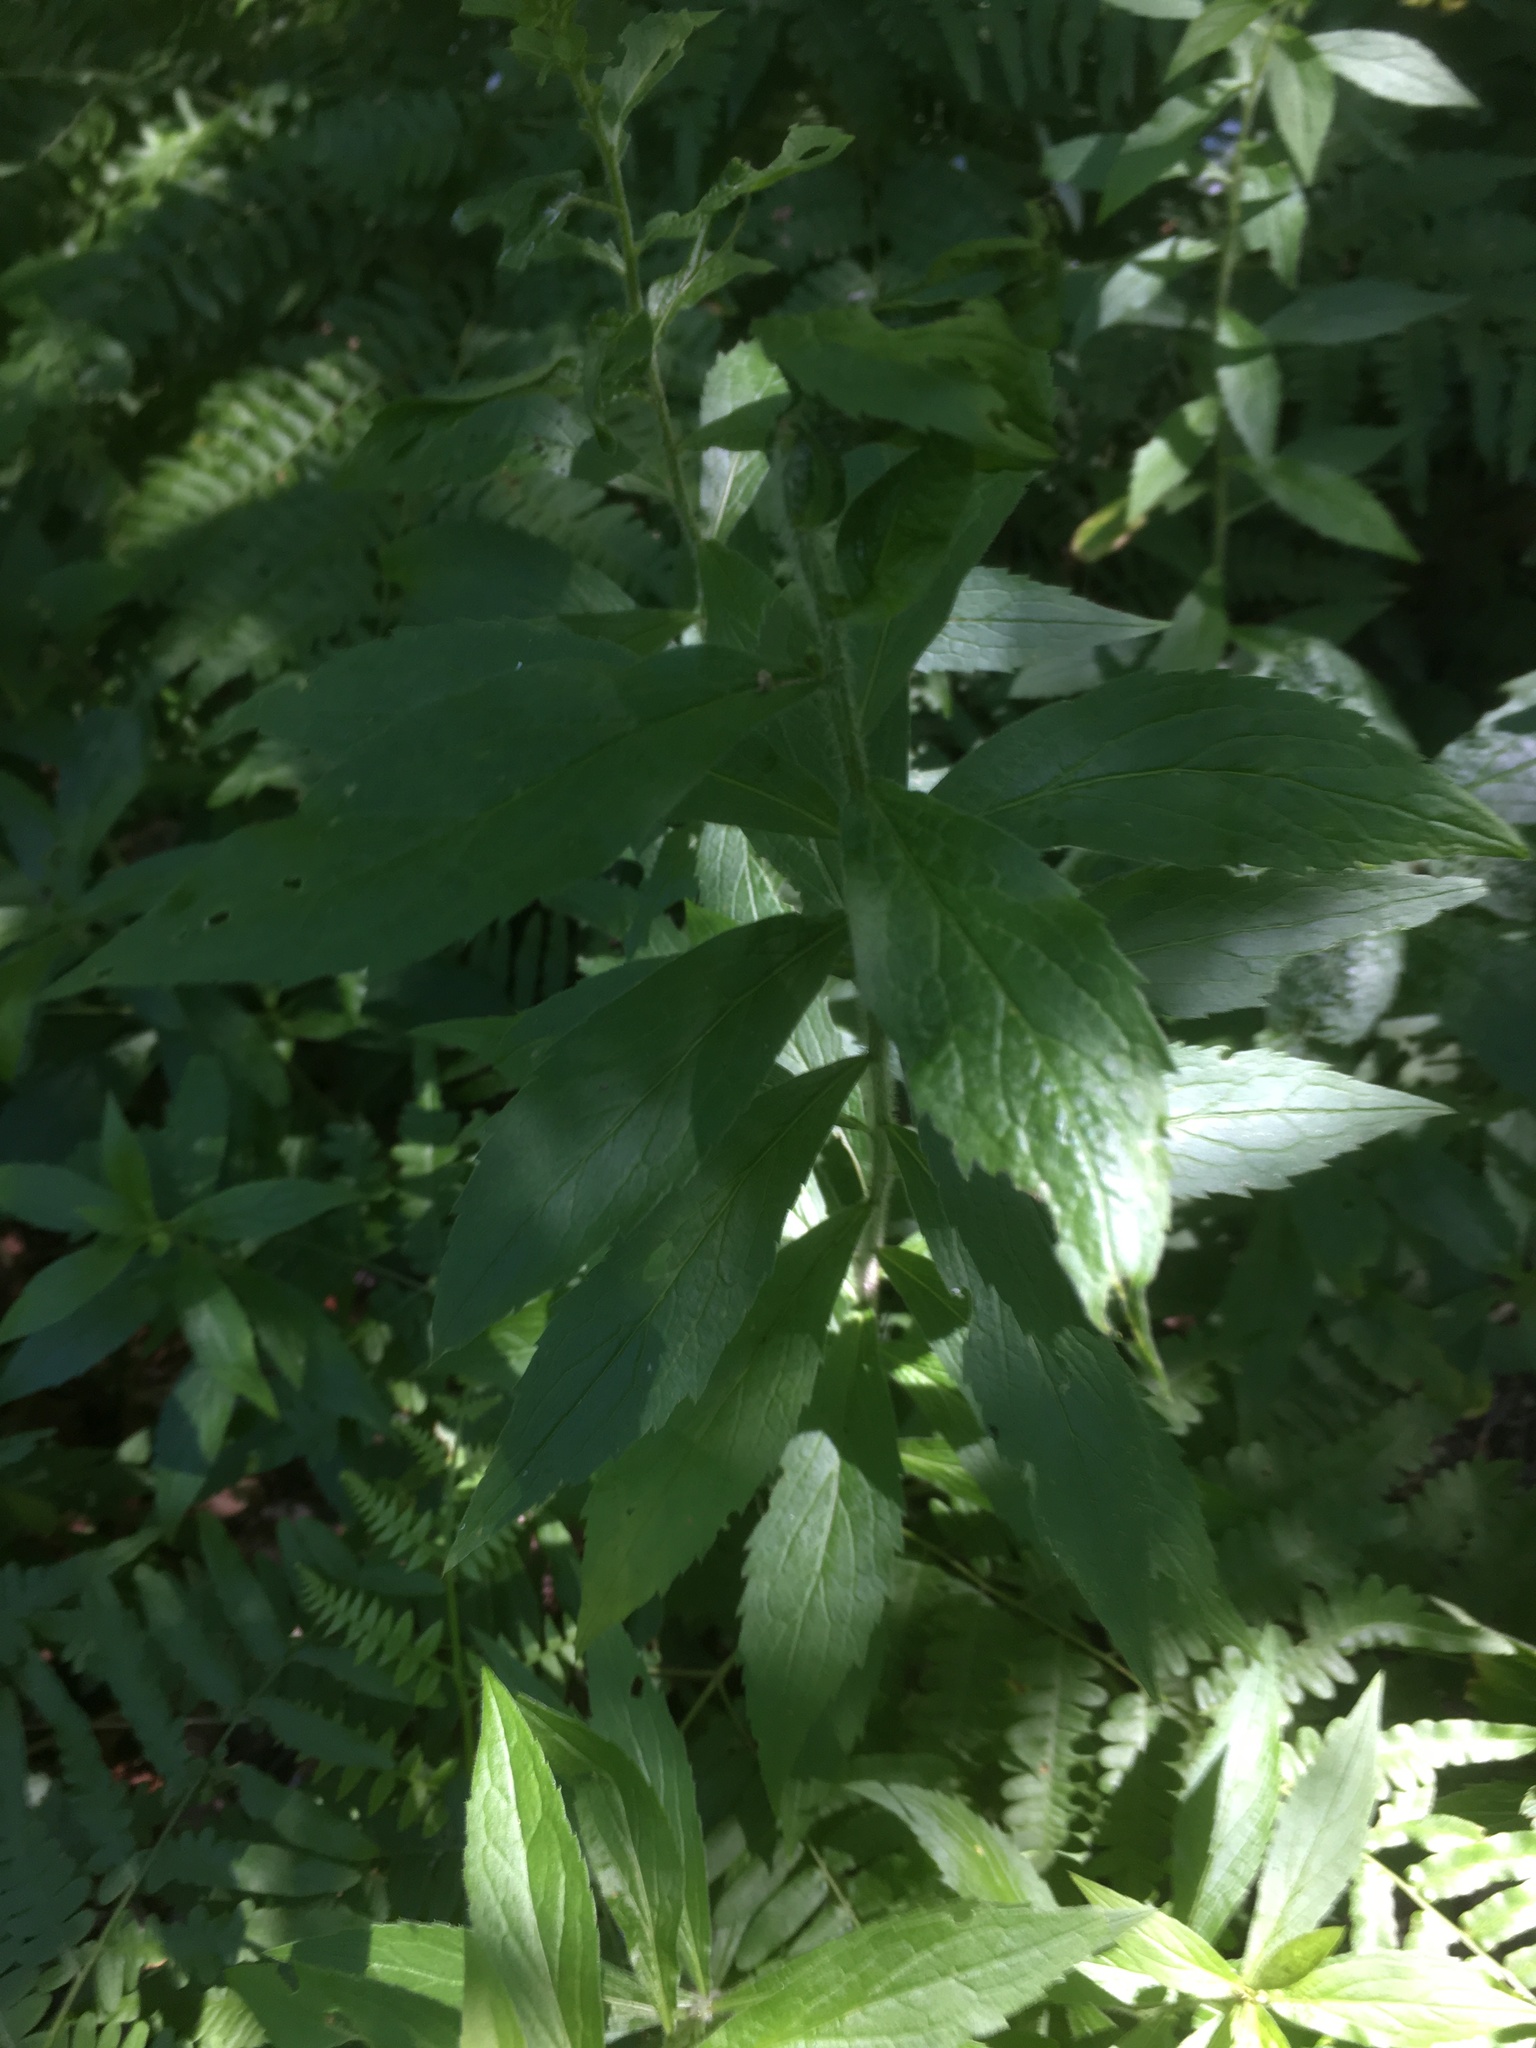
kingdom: Plantae
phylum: Tracheophyta
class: Magnoliopsida
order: Asterales
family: Asteraceae
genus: Solidago
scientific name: Solidago rugosa
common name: Rough-stemmed goldenrod
